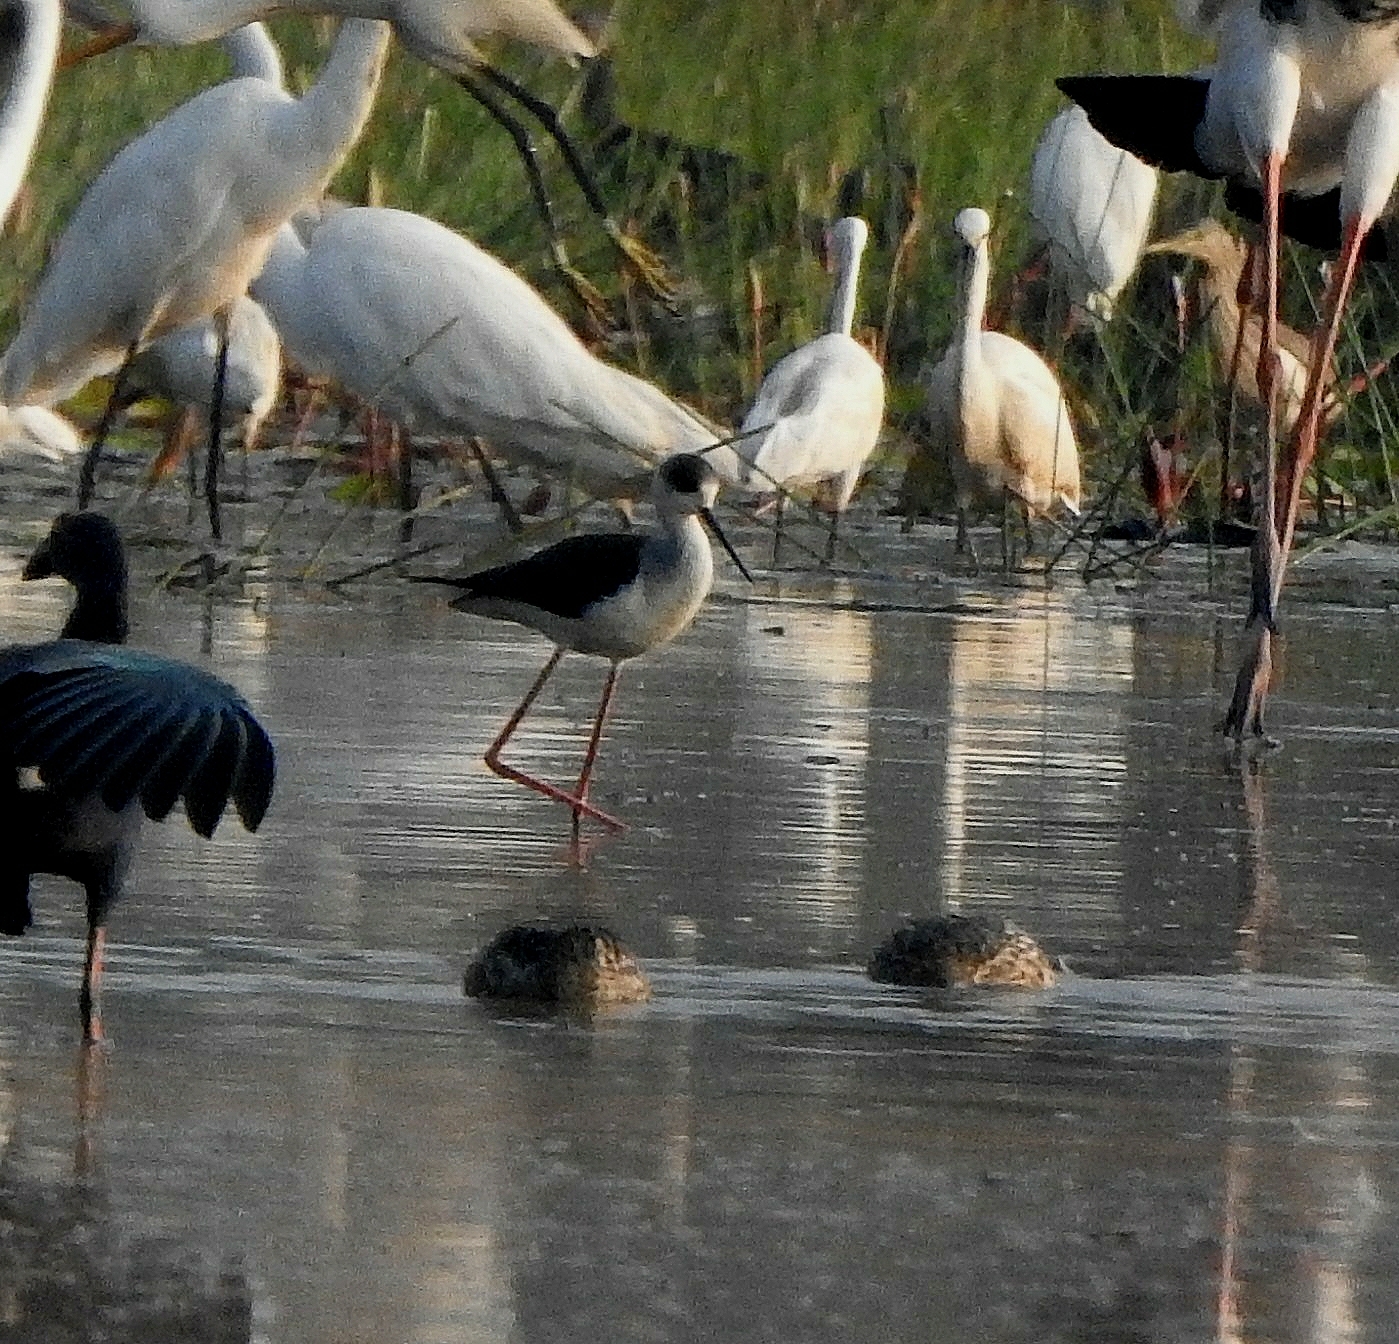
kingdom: Animalia
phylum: Chordata
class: Aves
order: Charadriiformes
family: Recurvirostridae
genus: Himantopus
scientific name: Himantopus himantopus
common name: Black-winged stilt
